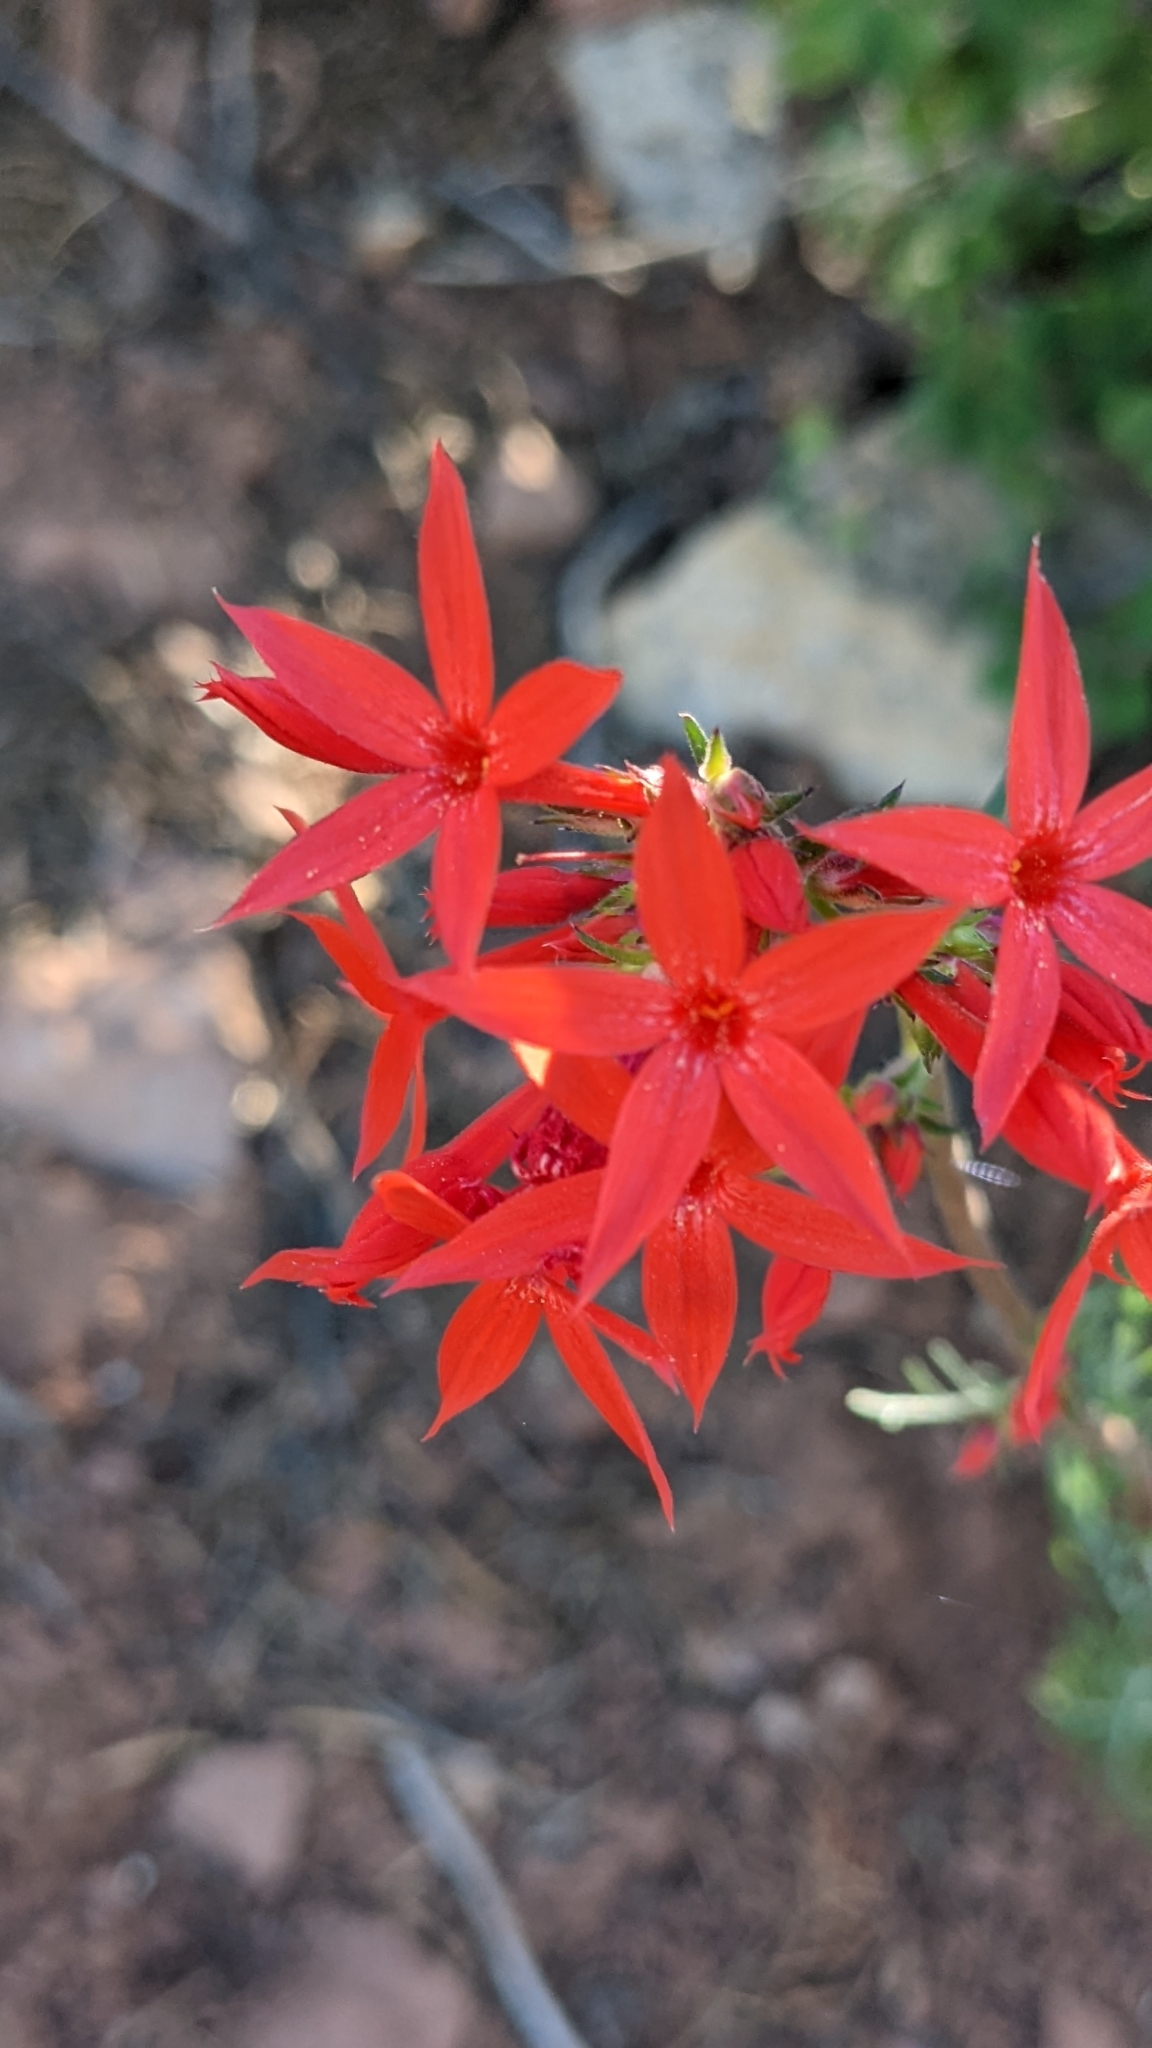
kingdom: Plantae
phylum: Tracheophyta
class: Magnoliopsida
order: Ericales
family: Polemoniaceae
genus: Ipomopsis
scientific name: Ipomopsis arizonica
